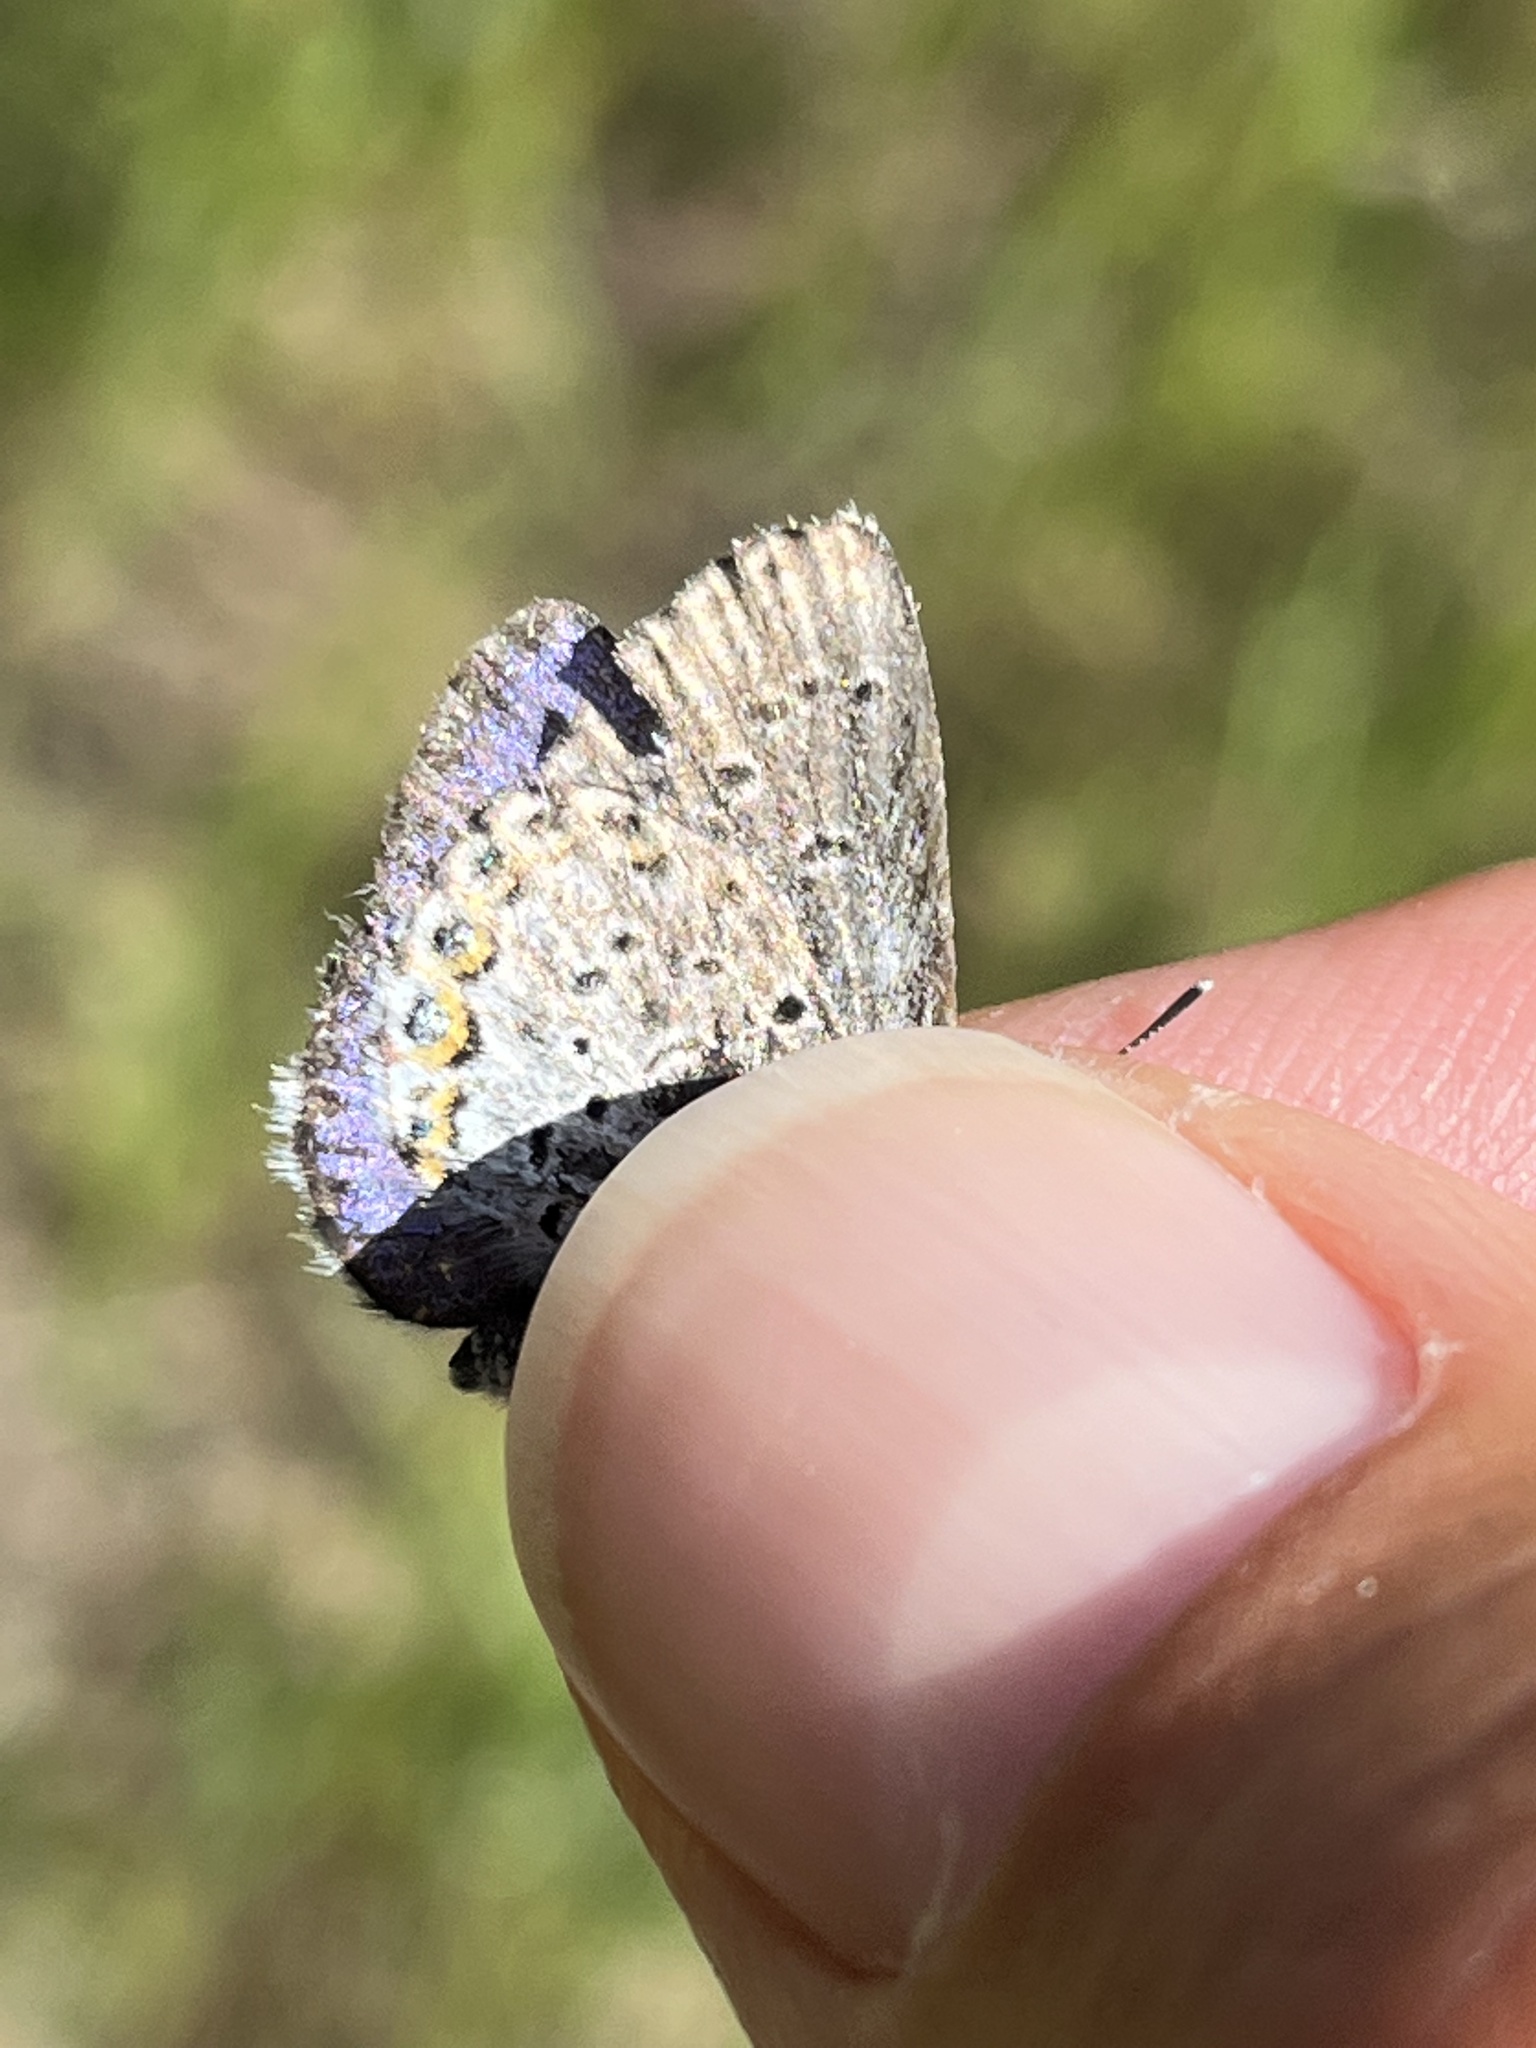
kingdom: Animalia
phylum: Arthropoda
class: Insecta
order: Lepidoptera
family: Lycaenidae
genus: Lycaeides
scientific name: Lycaeides idas
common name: Northern blue
